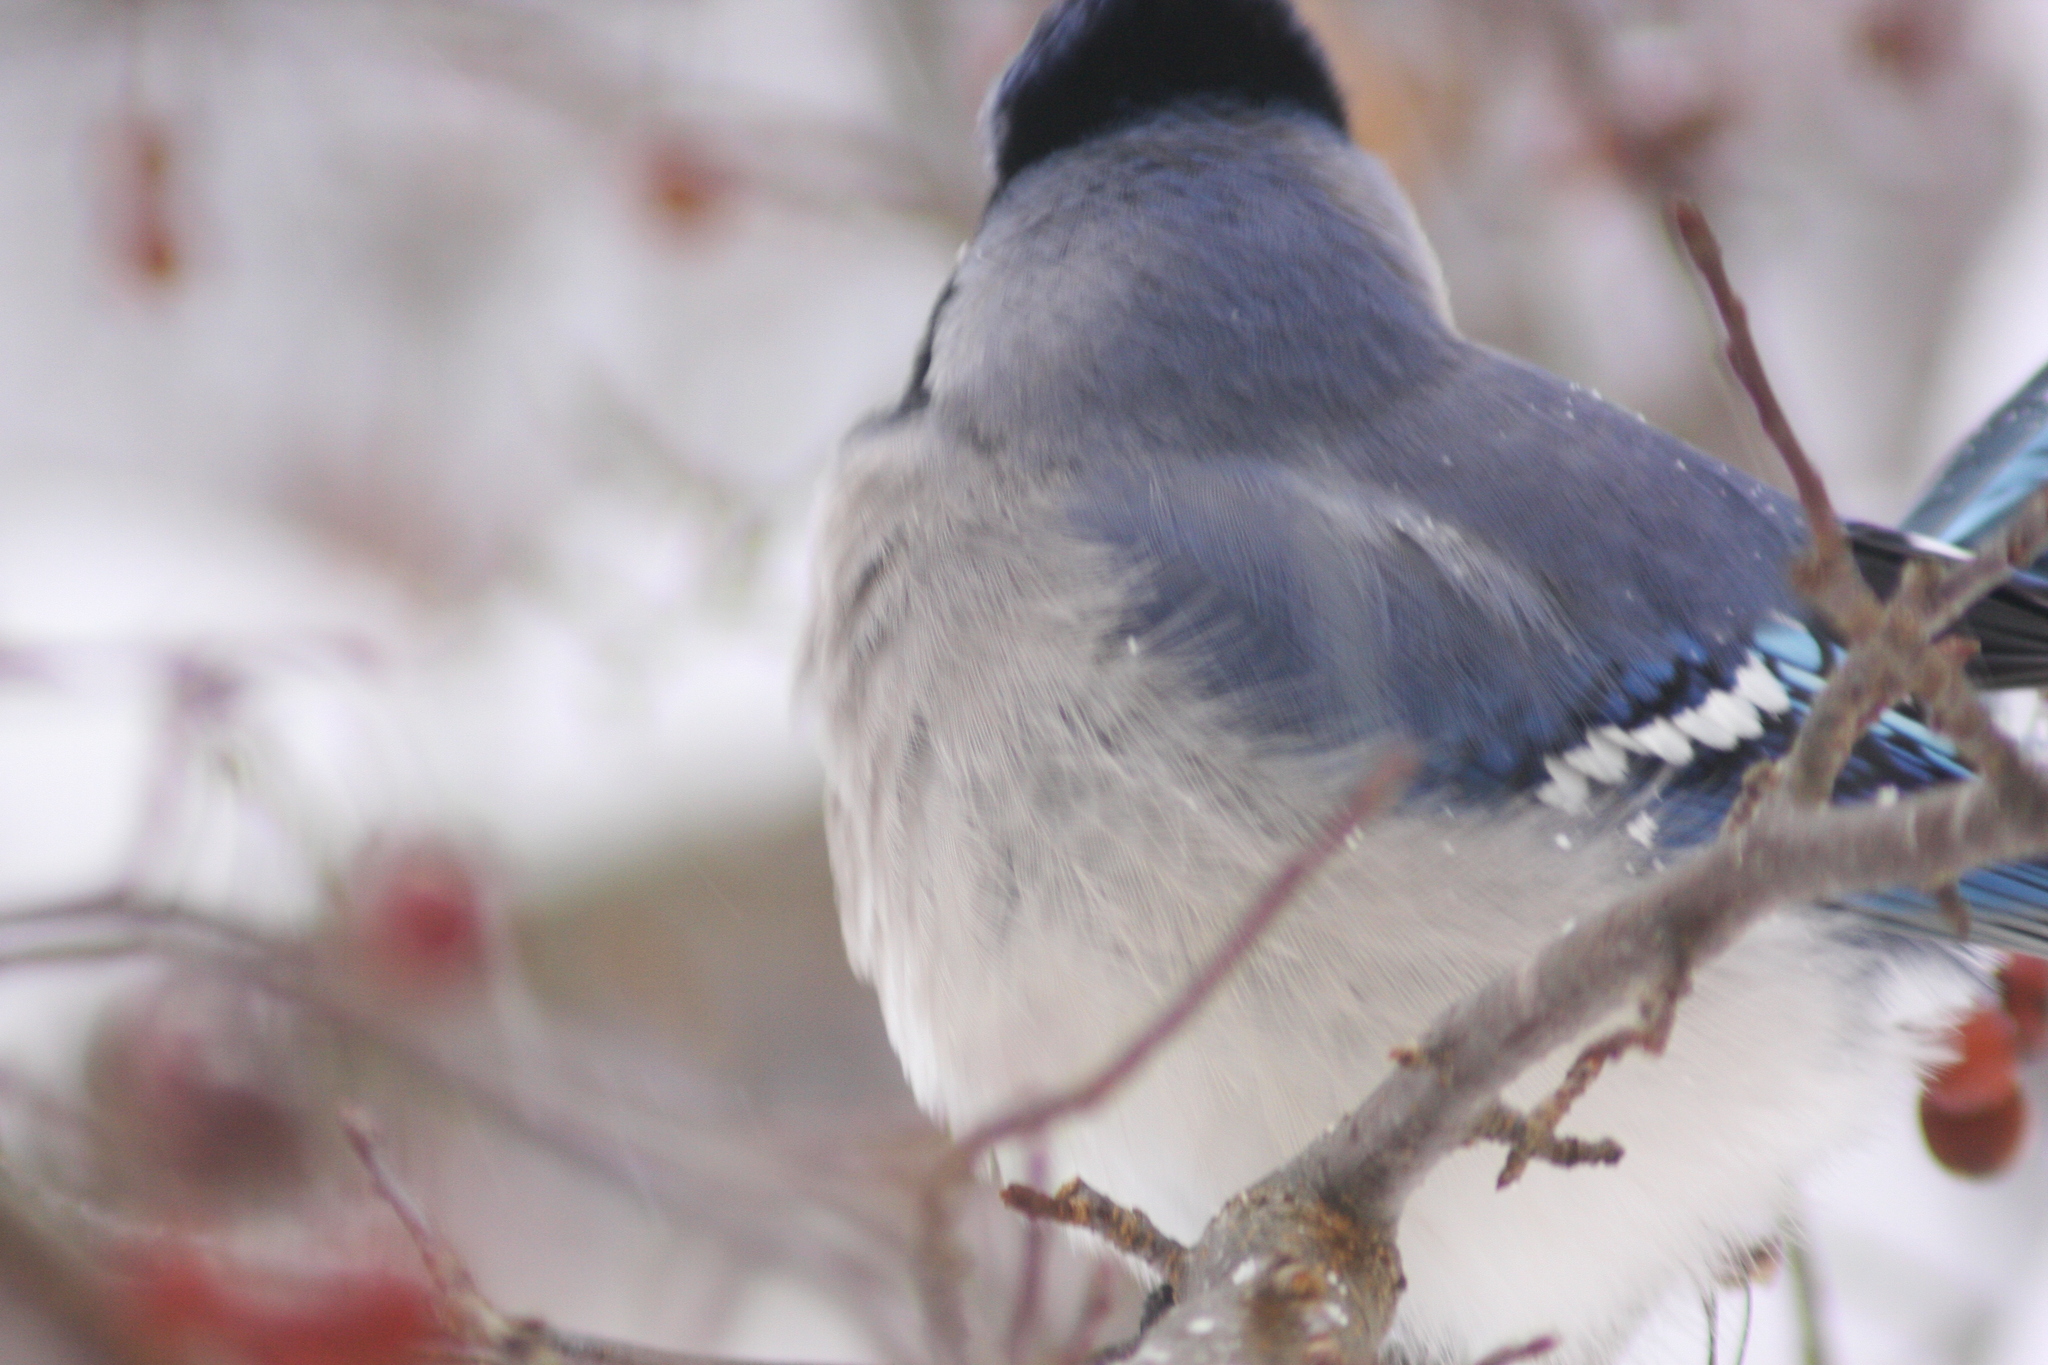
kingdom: Animalia
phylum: Chordata
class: Aves
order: Passeriformes
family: Corvidae
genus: Cyanocitta
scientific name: Cyanocitta cristata
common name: Blue jay
